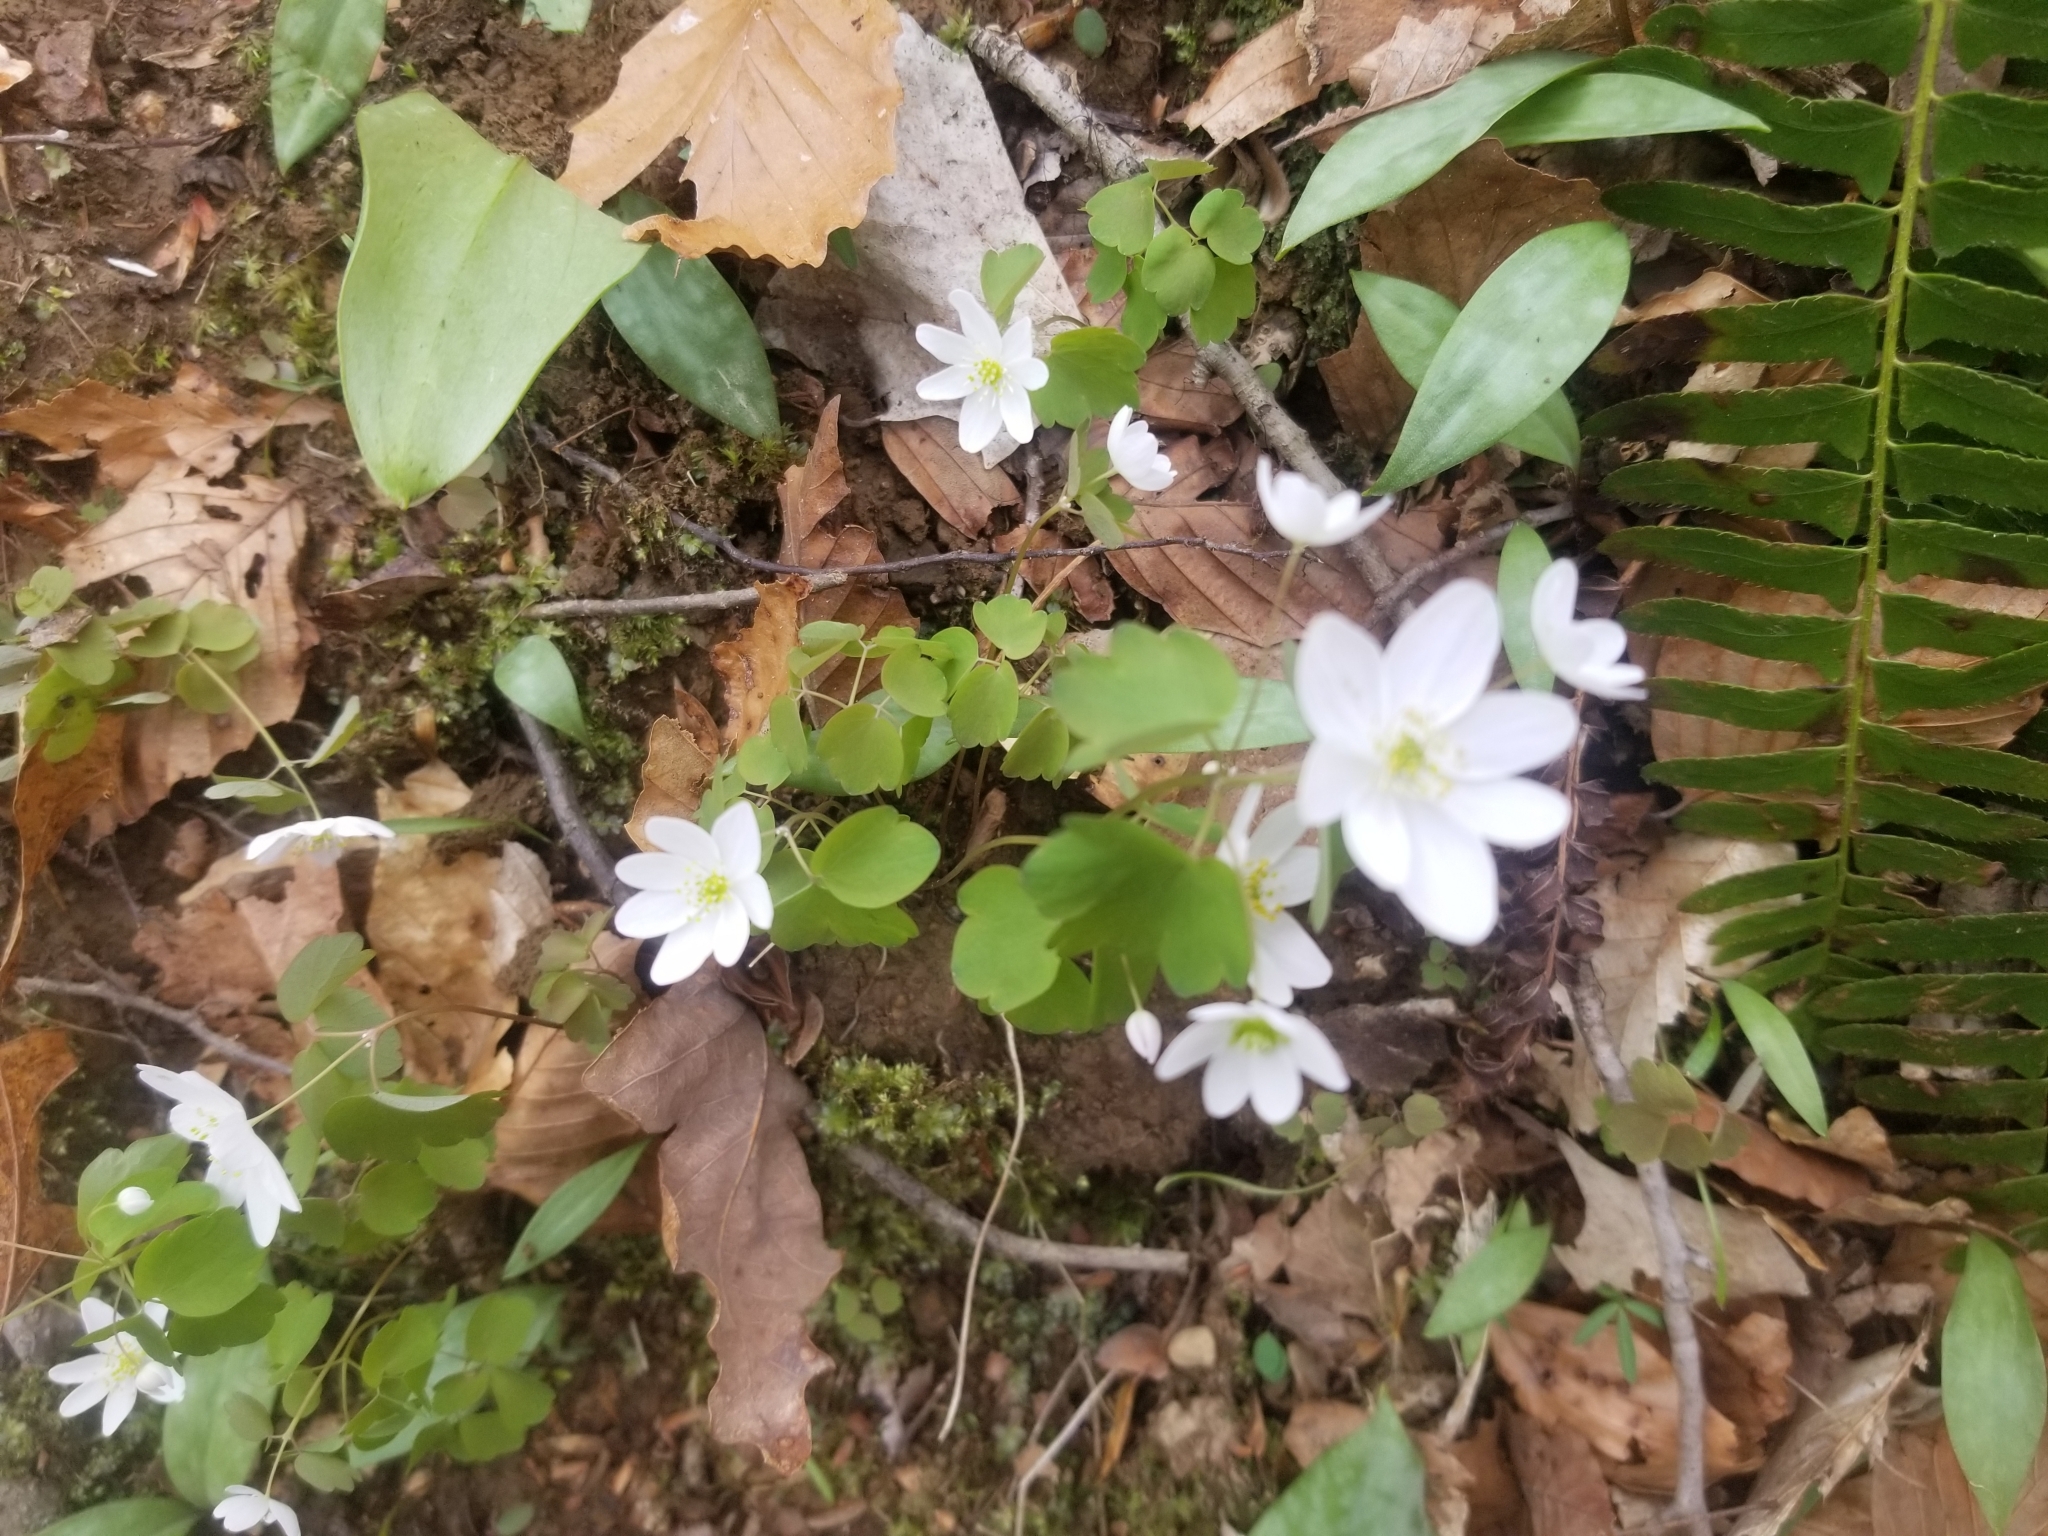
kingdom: Plantae
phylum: Tracheophyta
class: Magnoliopsida
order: Ranunculales
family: Ranunculaceae
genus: Thalictrum
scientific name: Thalictrum thalictroides
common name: Rue-anemone
